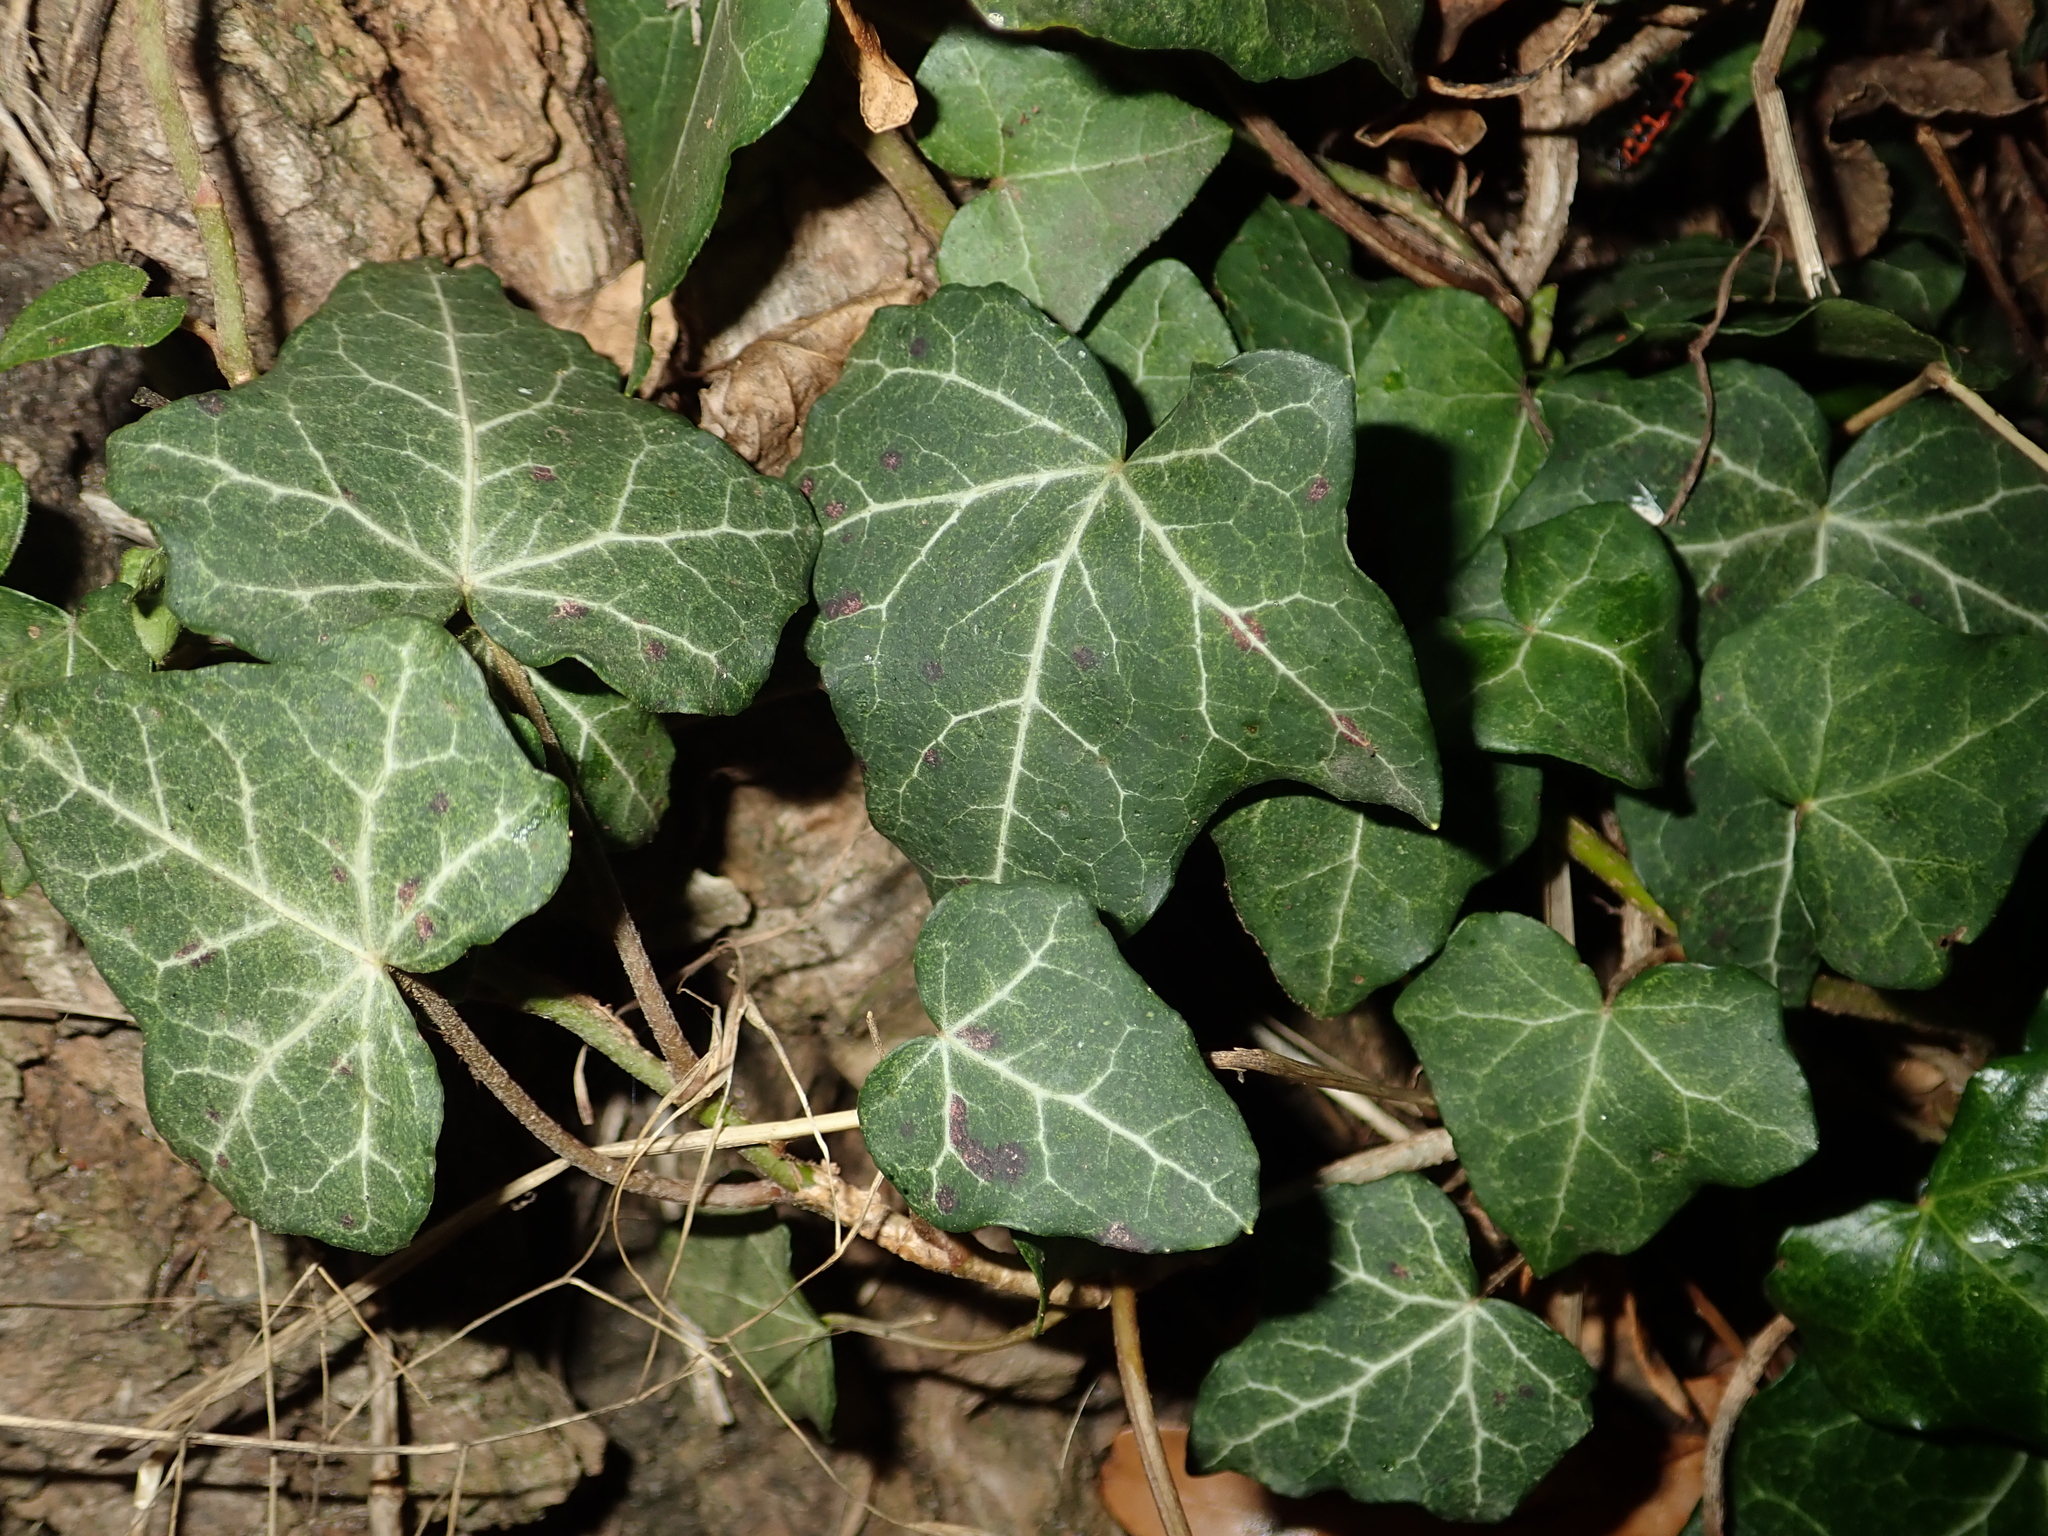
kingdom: Plantae
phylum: Tracheophyta
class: Magnoliopsida
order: Apiales
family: Araliaceae
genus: Hedera
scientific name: Hedera helix
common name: Ivy
